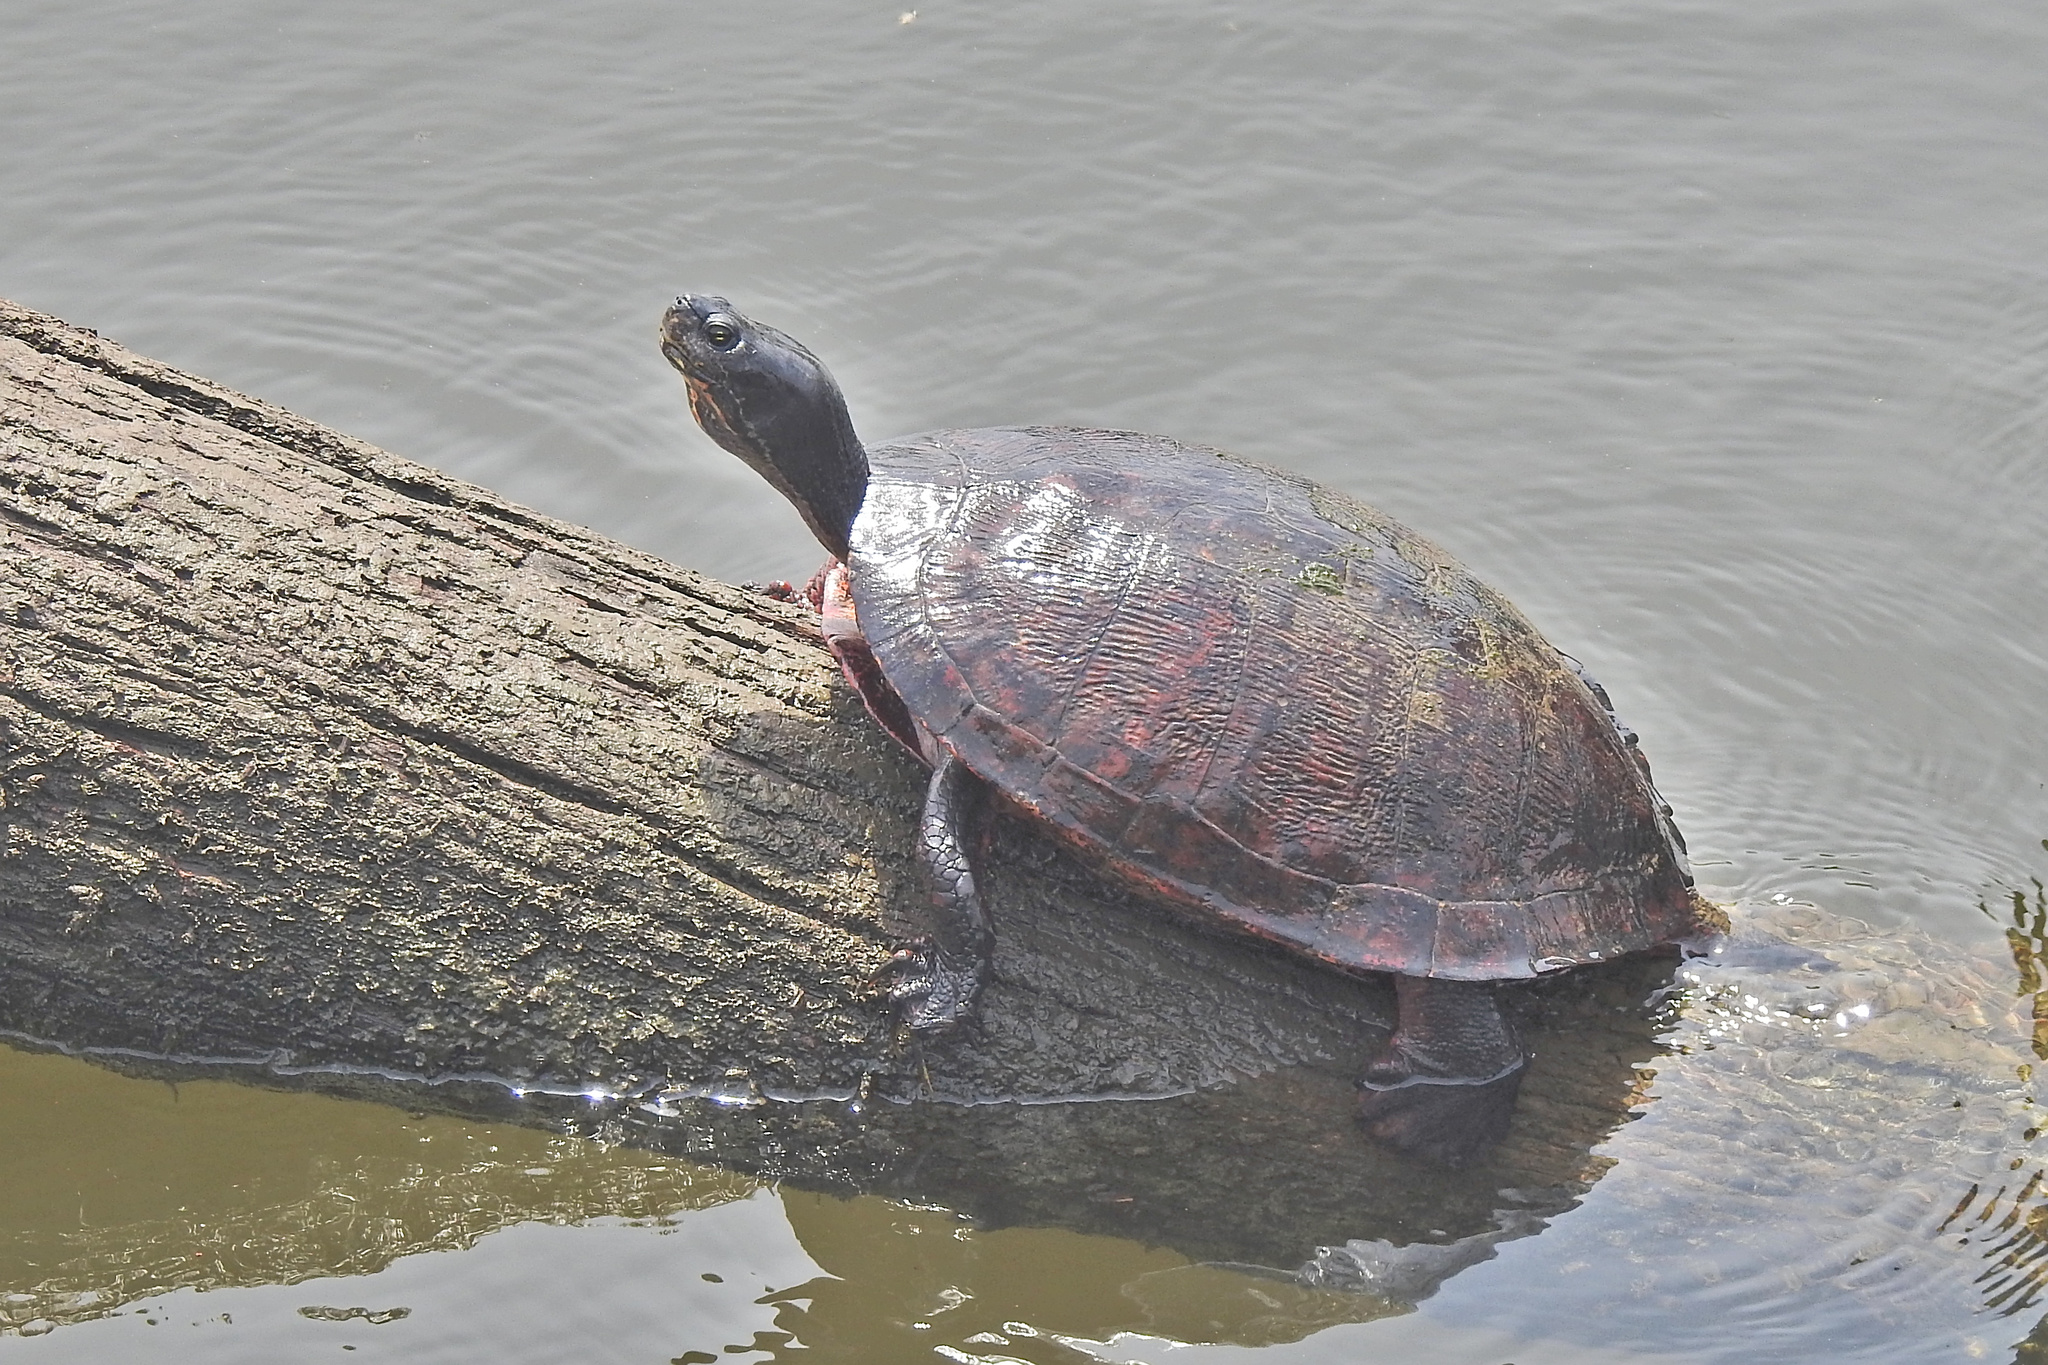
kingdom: Animalia
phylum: Chordata
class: Testudines
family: Emydidae
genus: Pseudemys
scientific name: Pseudemys rubriventris
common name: American red-bellied turtle
